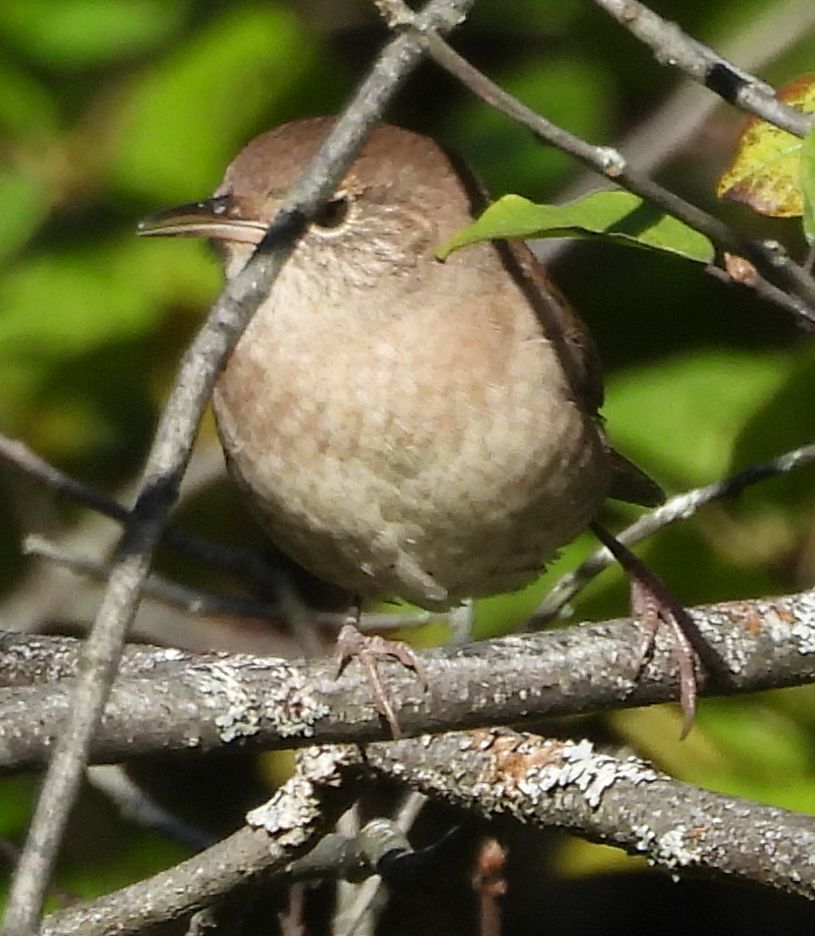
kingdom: Animalia
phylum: Chordata
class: Aves
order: Passeriformes
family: Troglodytidae
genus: Troglodytes
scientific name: Troglodytes aedon
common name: House wren
